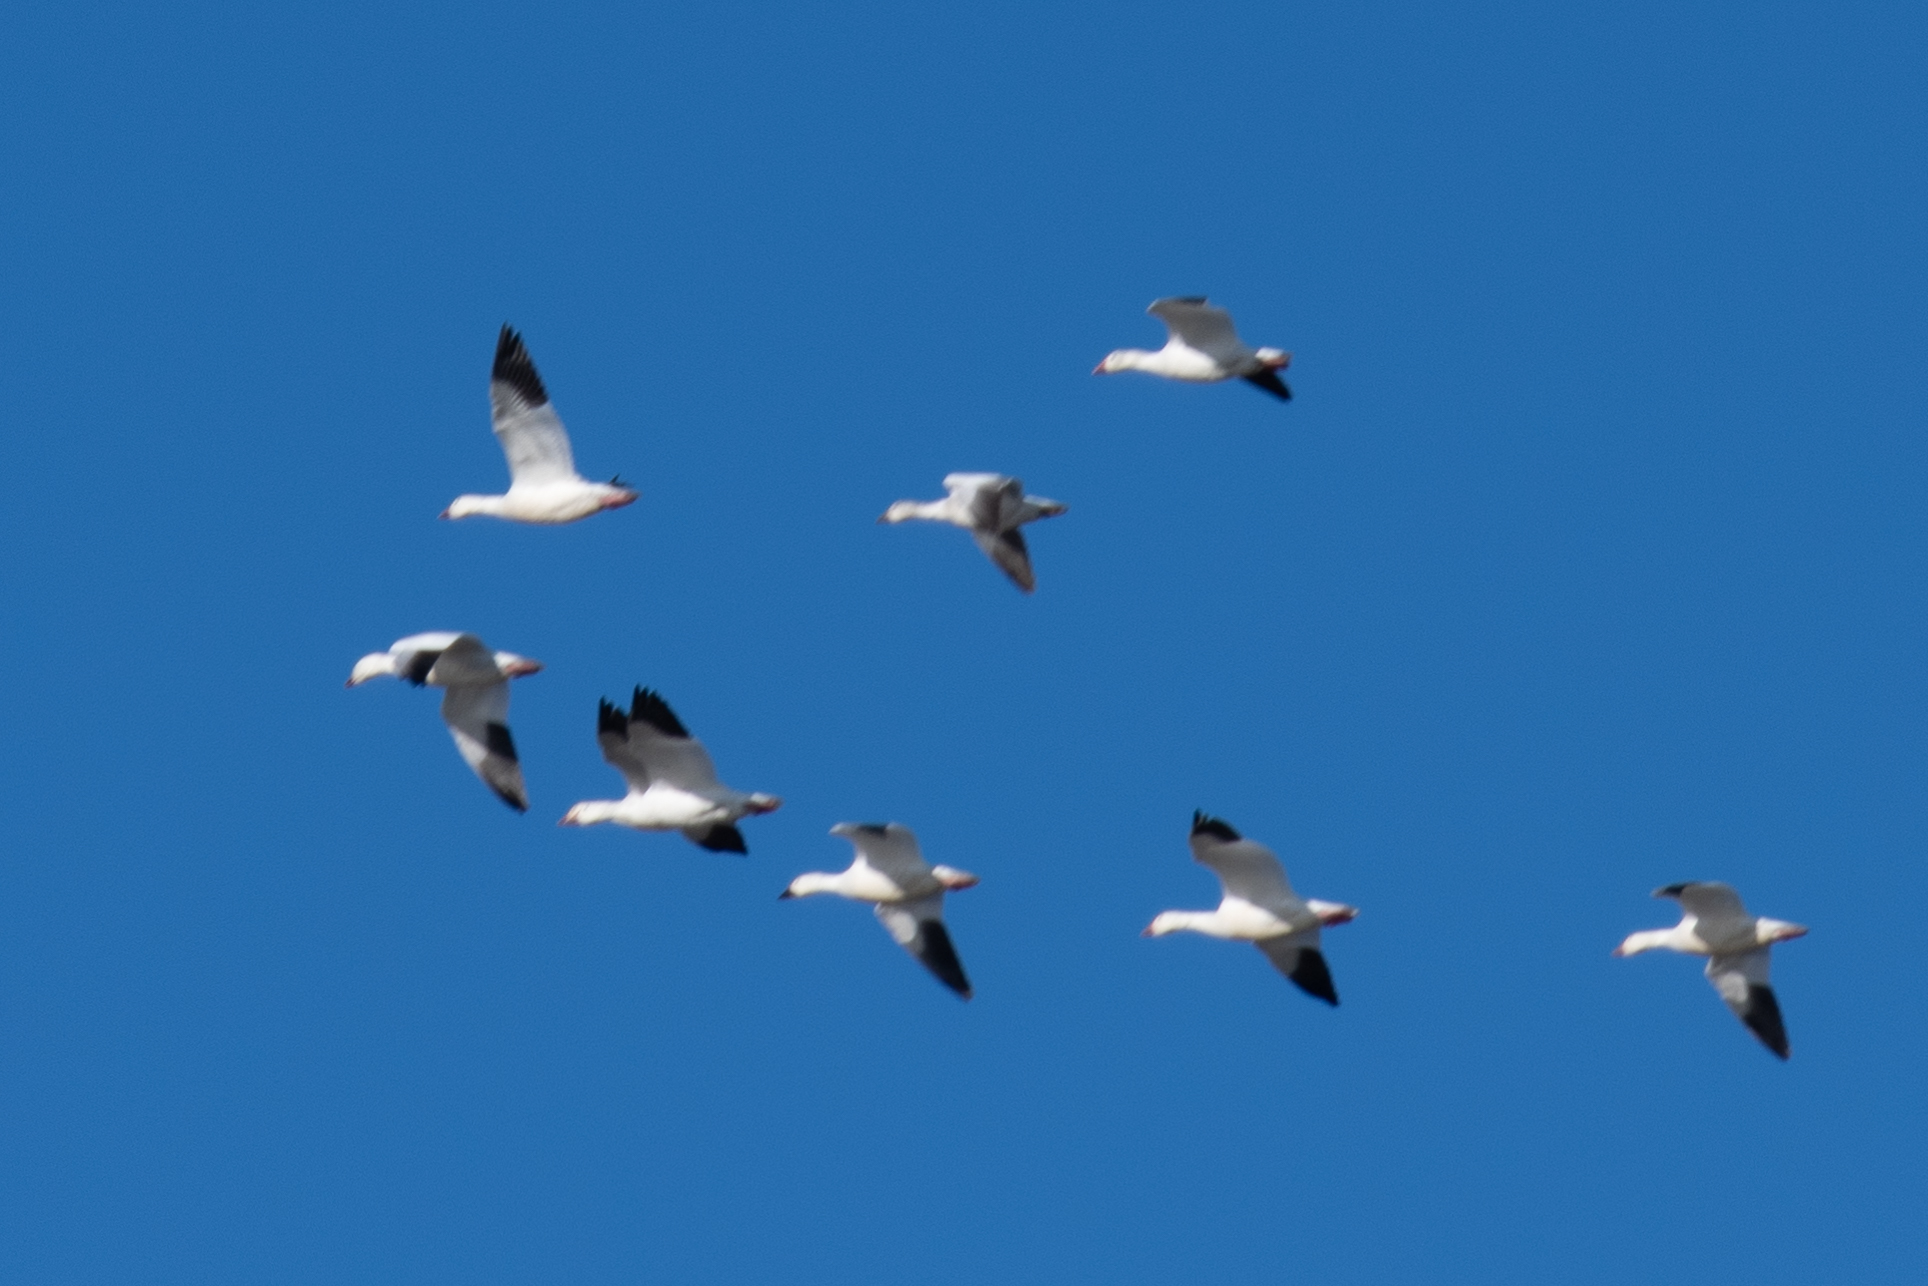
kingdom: Animalia
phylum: Chordata
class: Aves
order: Anseriformes
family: Anatidae
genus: Anser
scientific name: Anser caerulescens
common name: Snow goose
